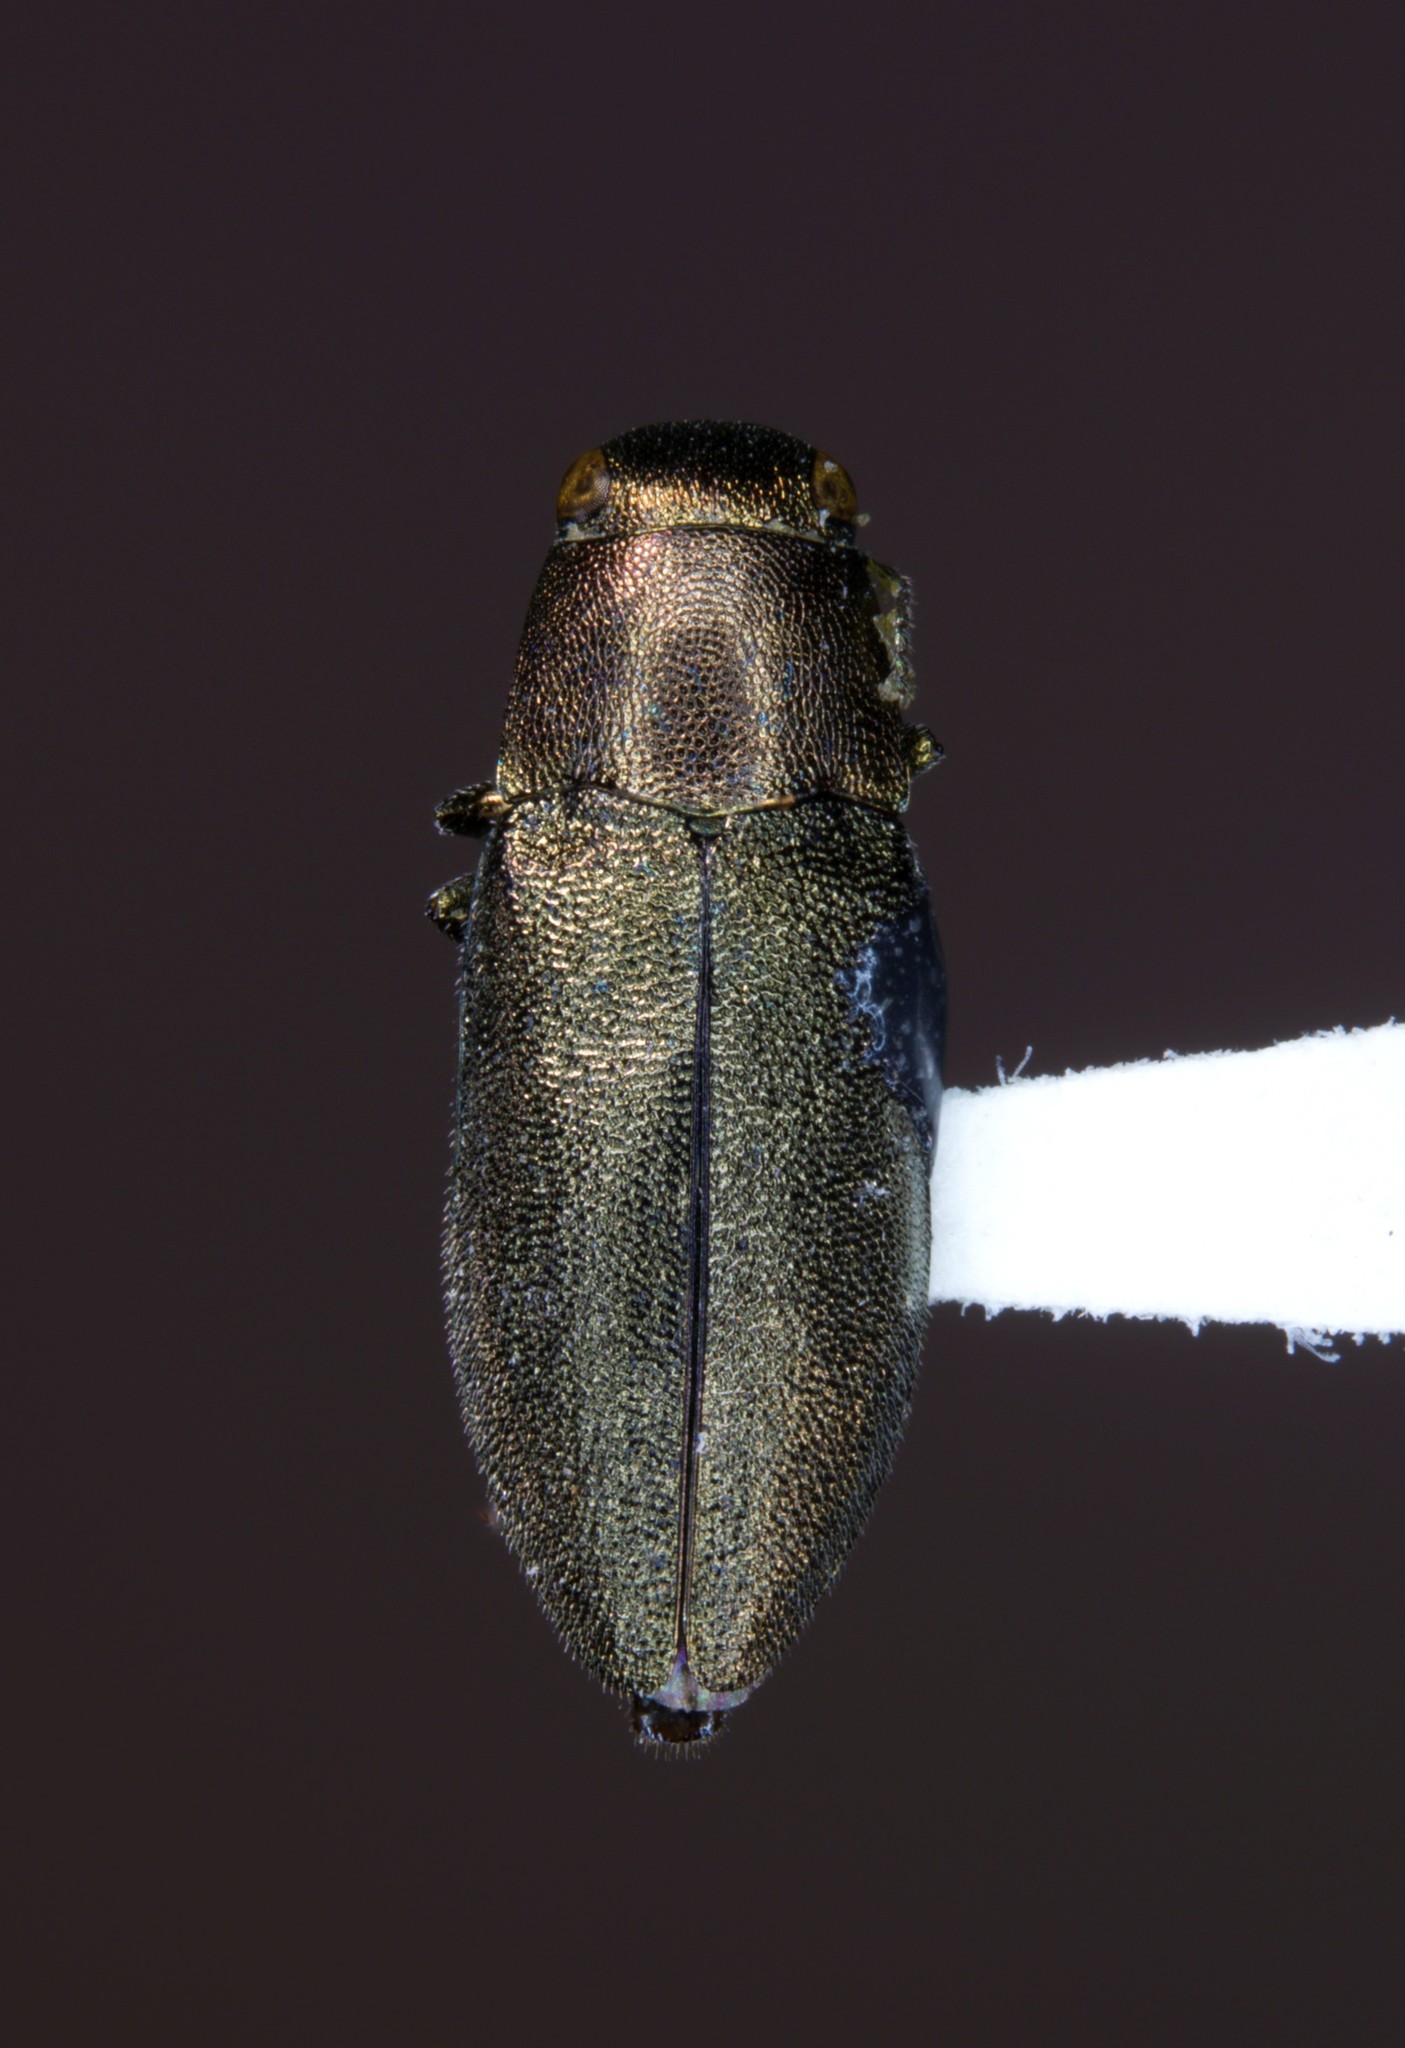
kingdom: Animalia
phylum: Arthropoda
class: Insecta
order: Coleoptera
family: Buprestidae
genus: Phaenops
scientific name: Phaenops aeneola
